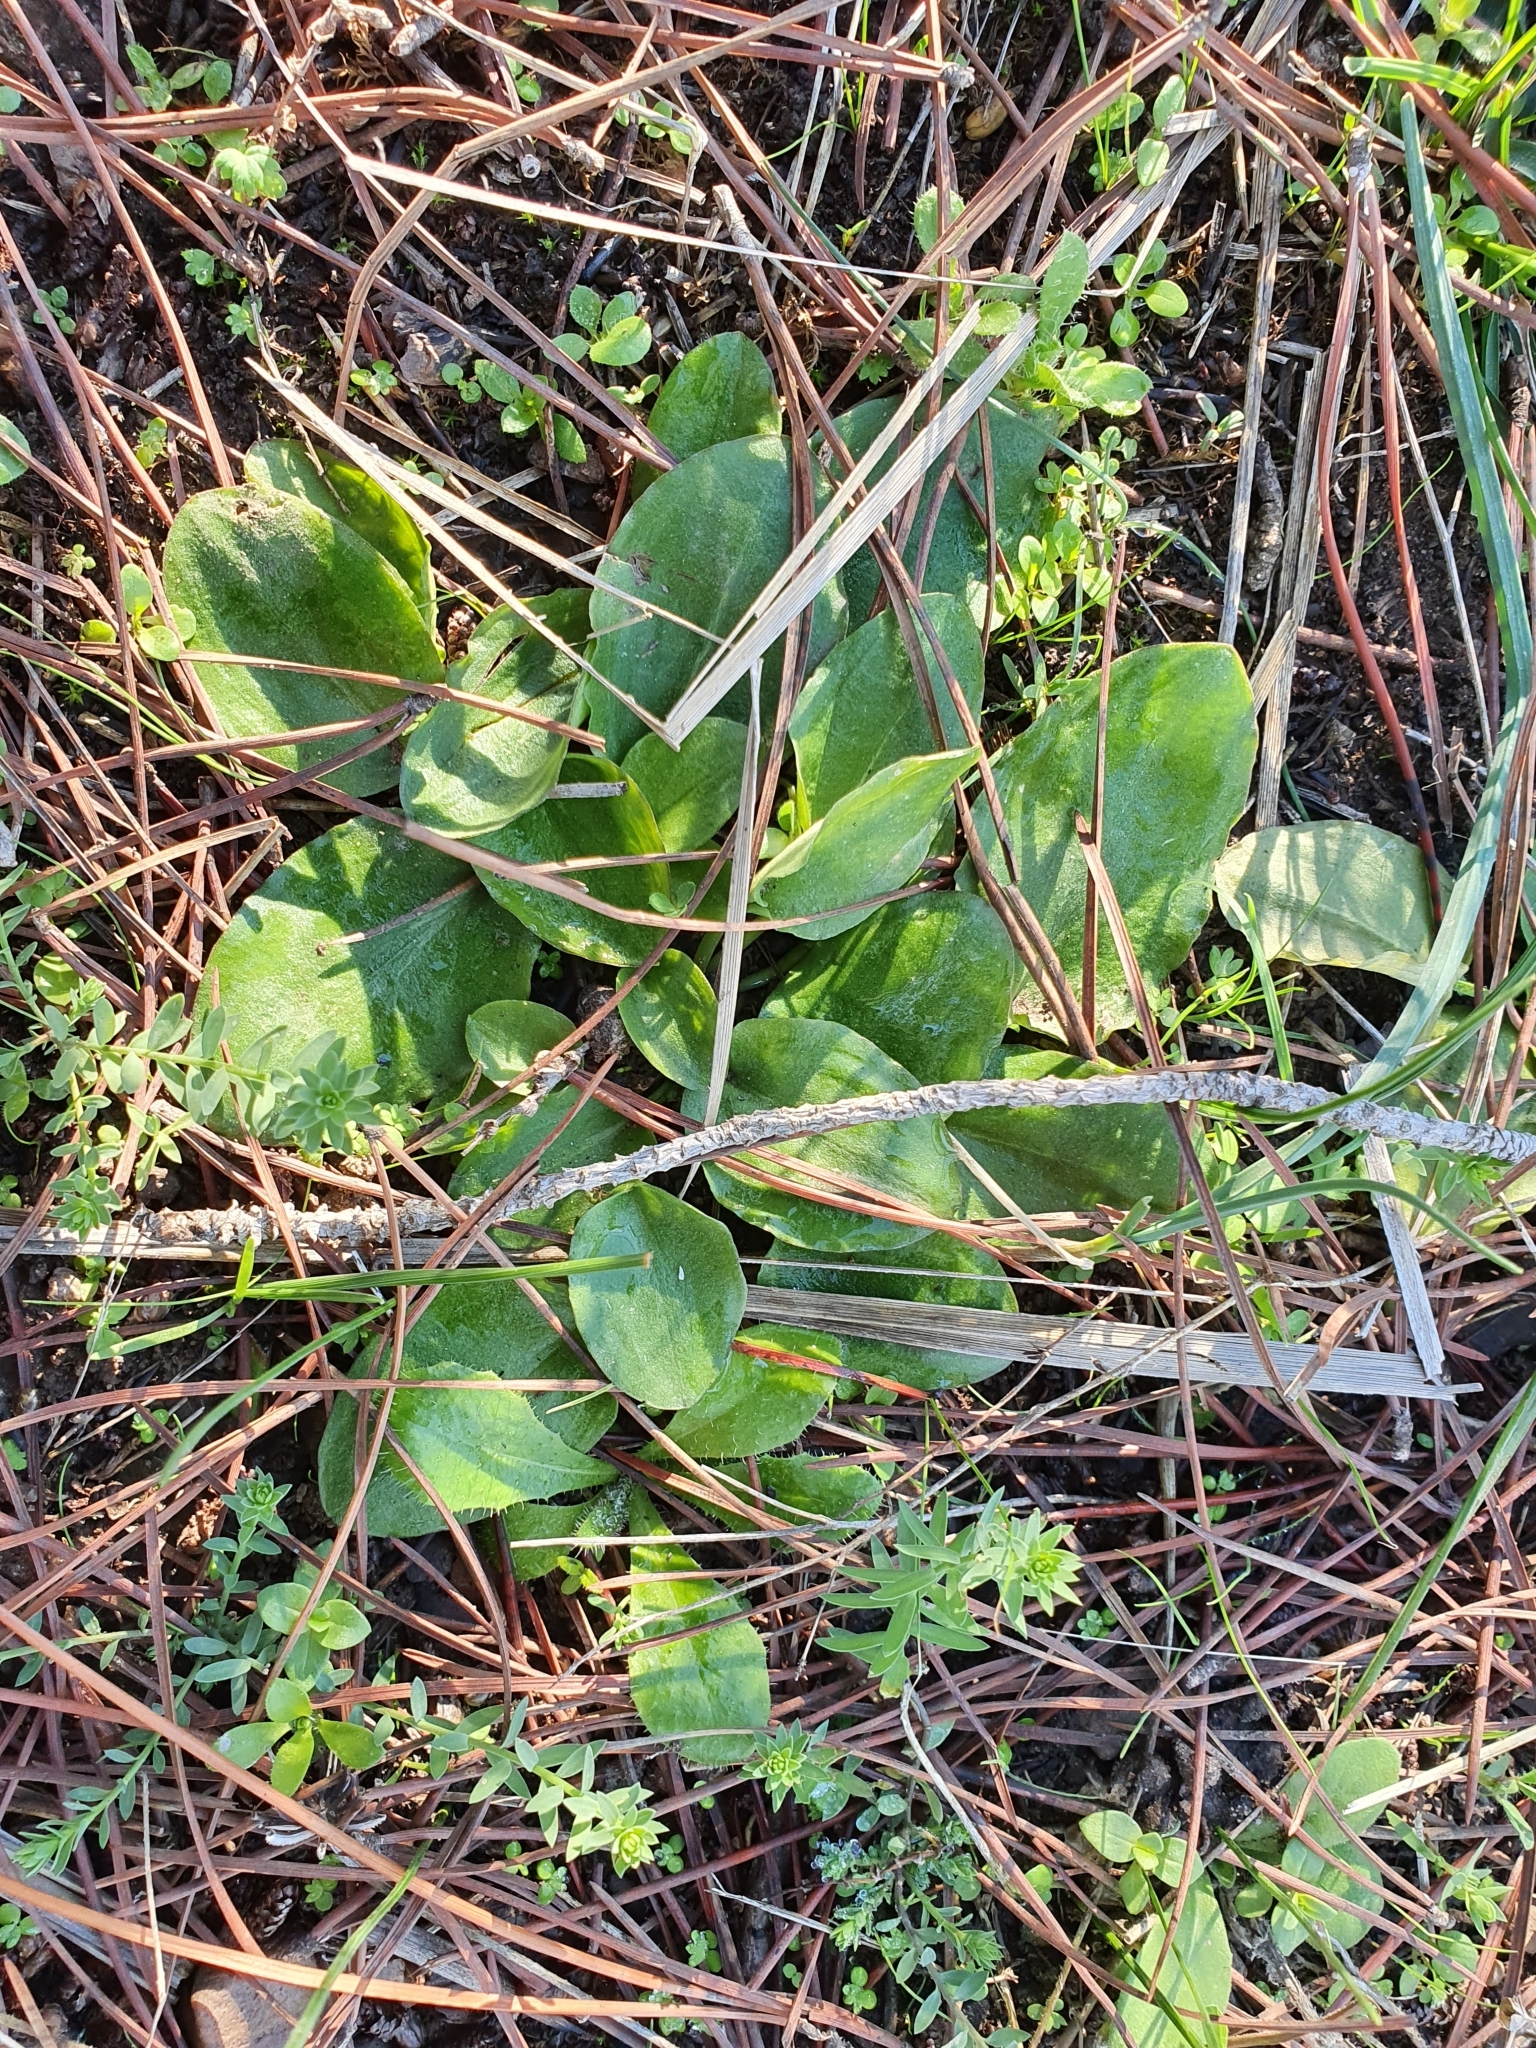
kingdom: Plantae
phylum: Tracheophyta
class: Liliopsida
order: Alismatales
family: Araceae
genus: Ambrosina
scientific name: Ambrosina bassii
